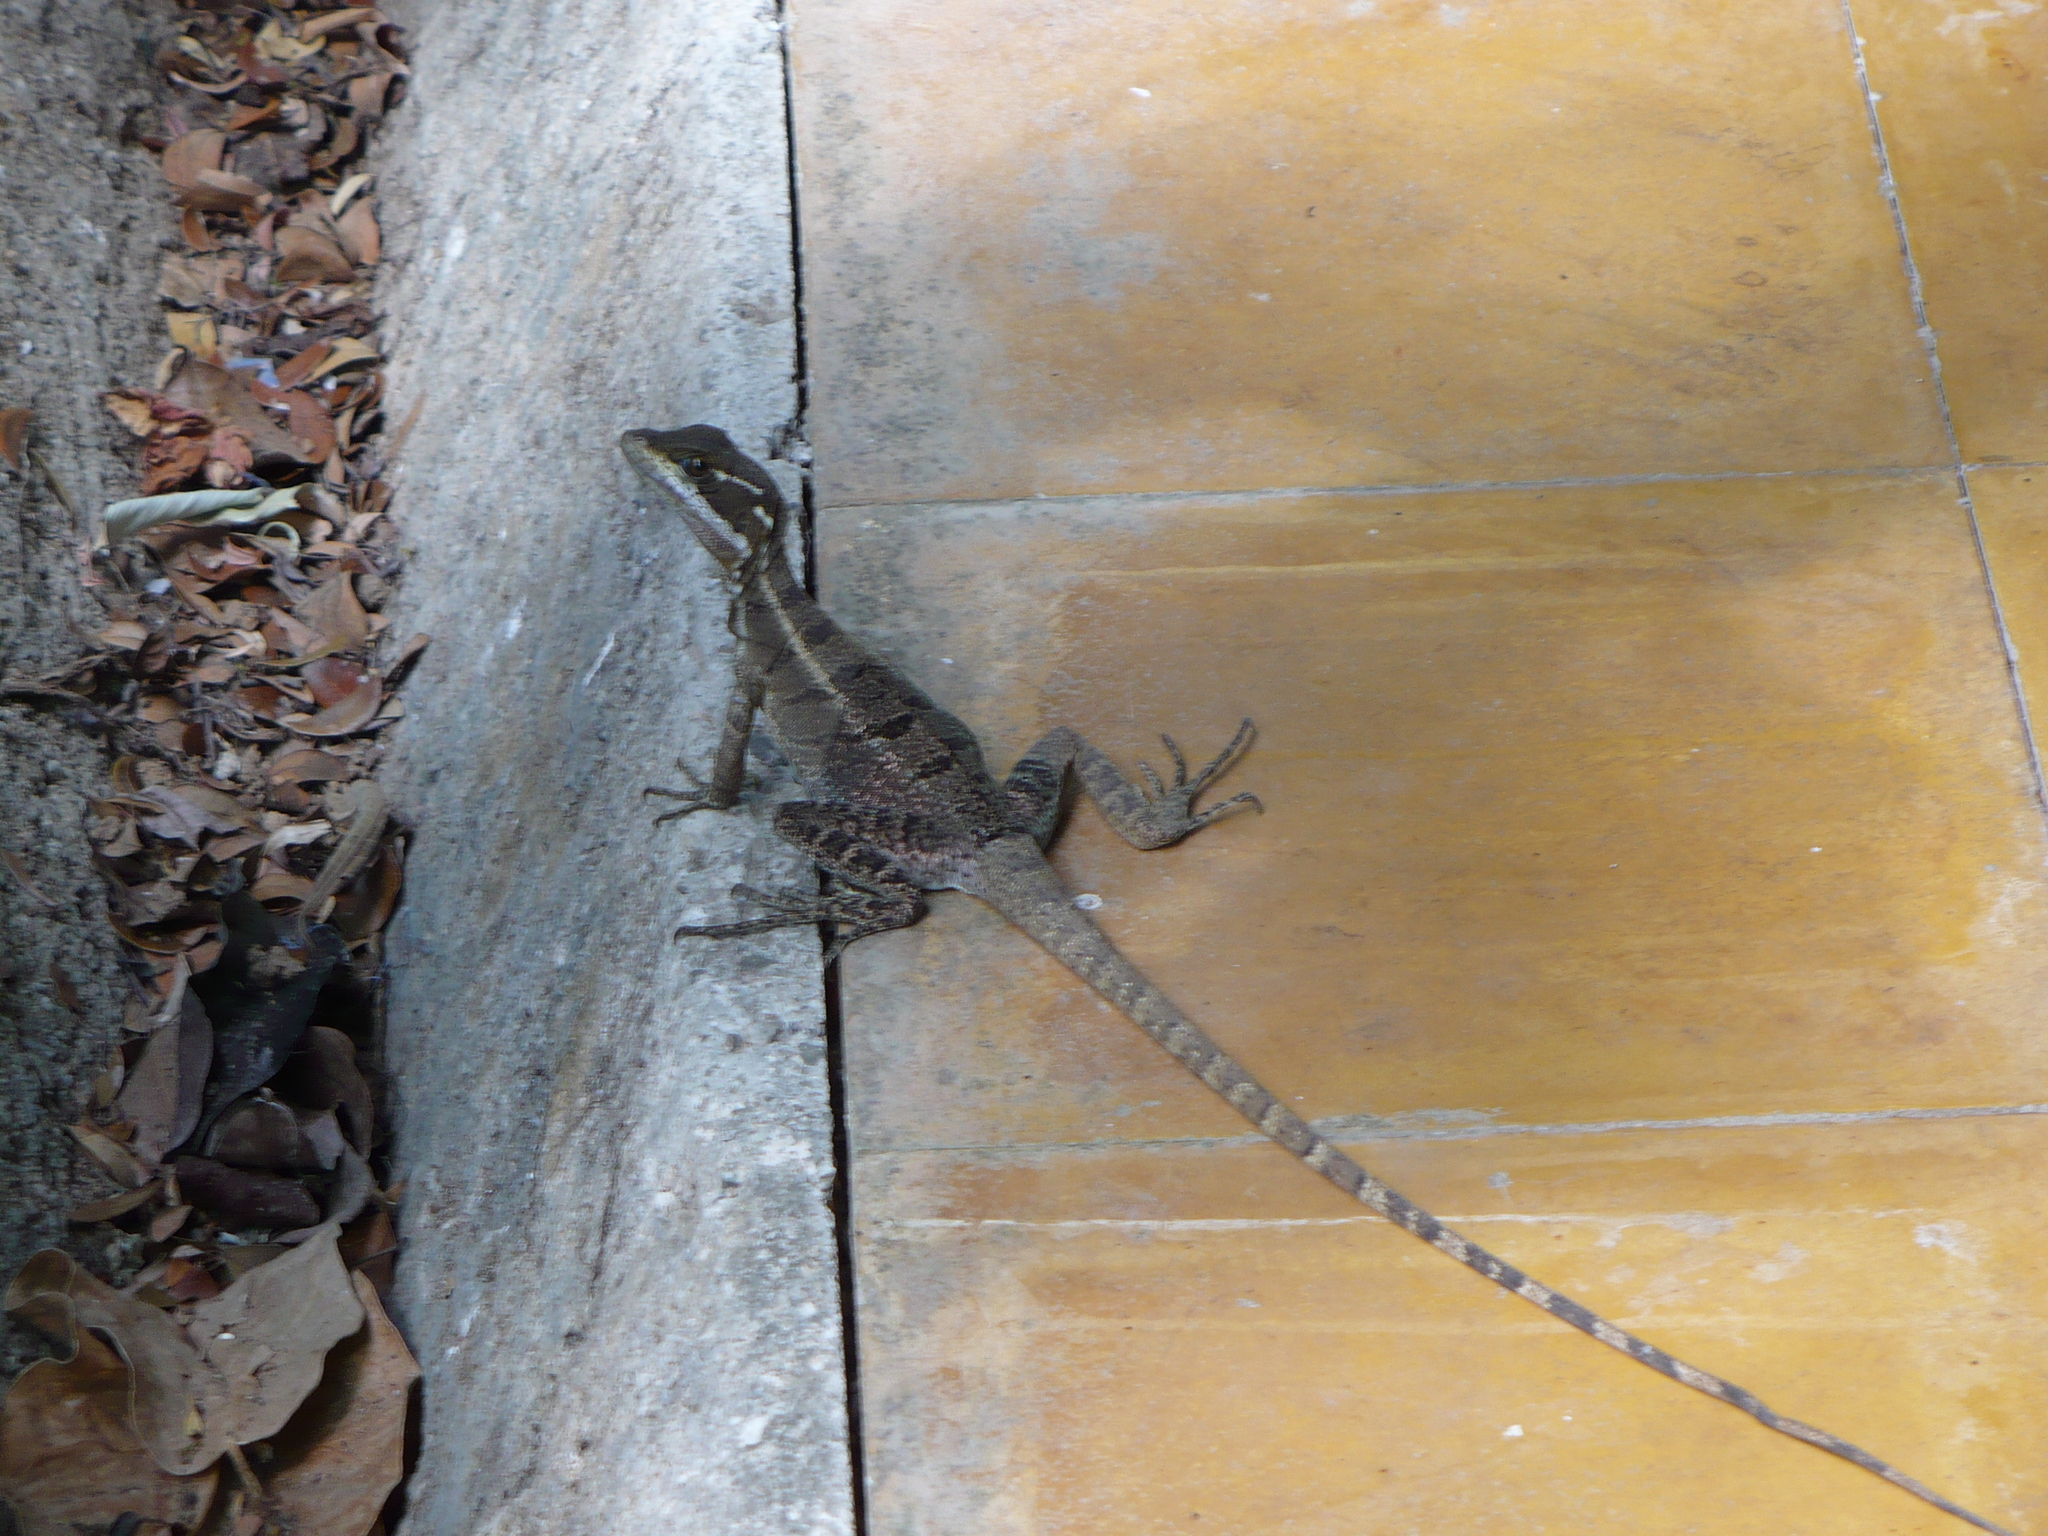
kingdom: Animalia
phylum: Chordata
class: Squamata
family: Corytophanidae
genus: Basiliscus
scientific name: Basiliscus basiliscus
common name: Common basilisk
